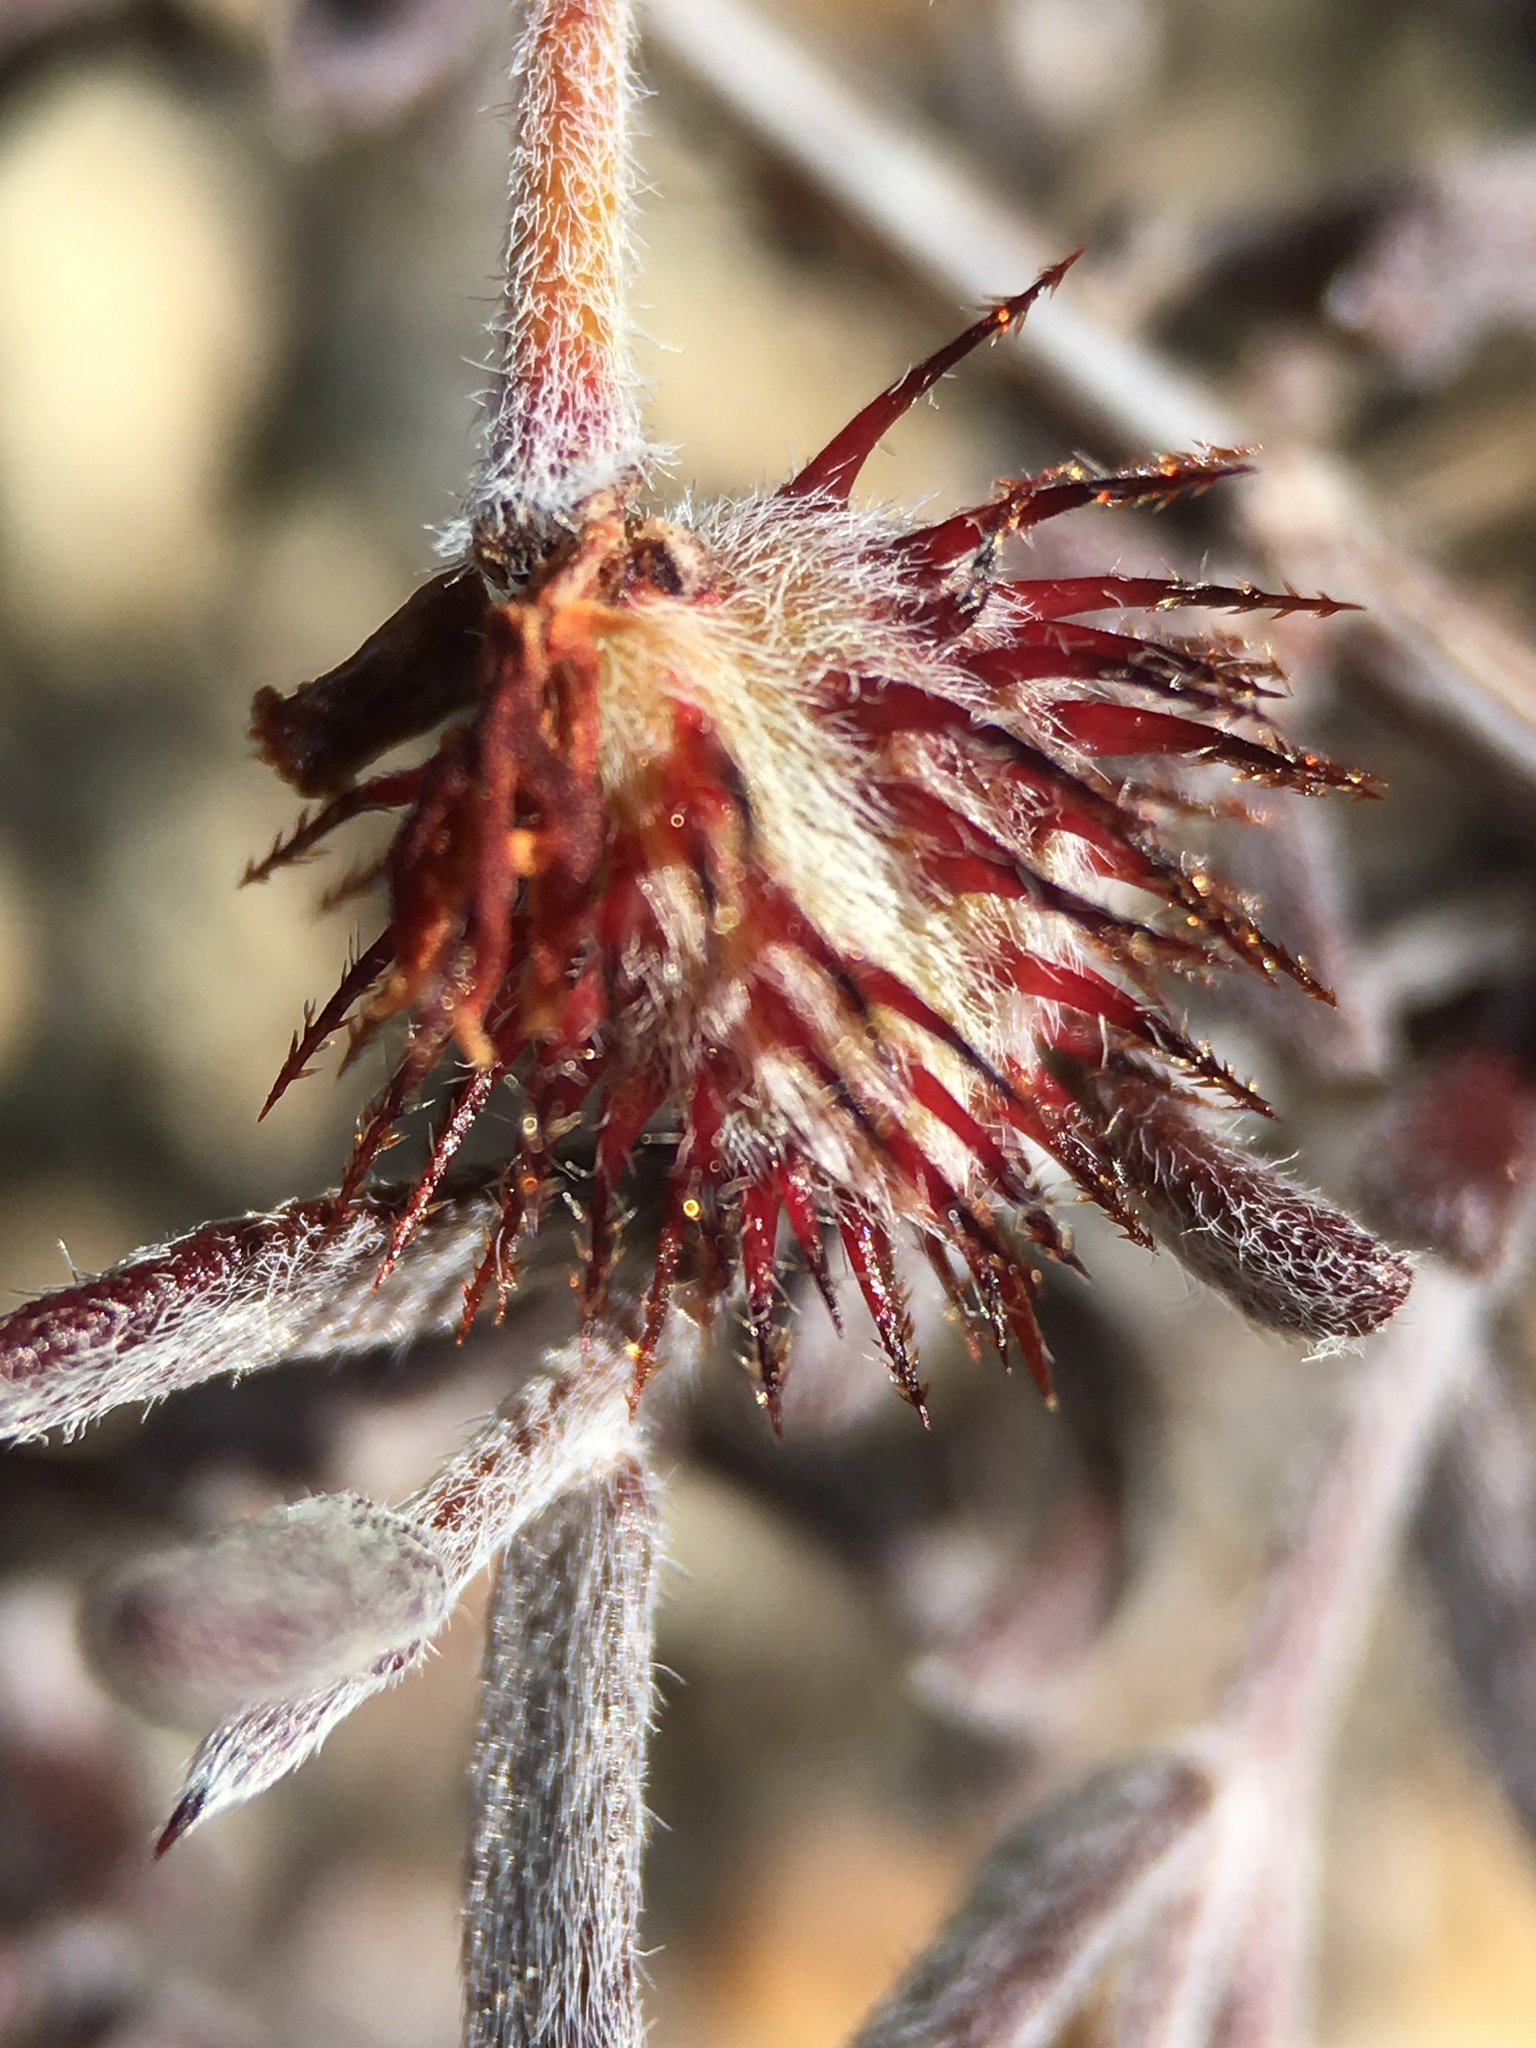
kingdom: Plantae
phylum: Tracheophyta
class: Magnoliopsida
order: Zygophyllales
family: Krameriaceae
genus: Krameria
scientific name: Krameria erecta
